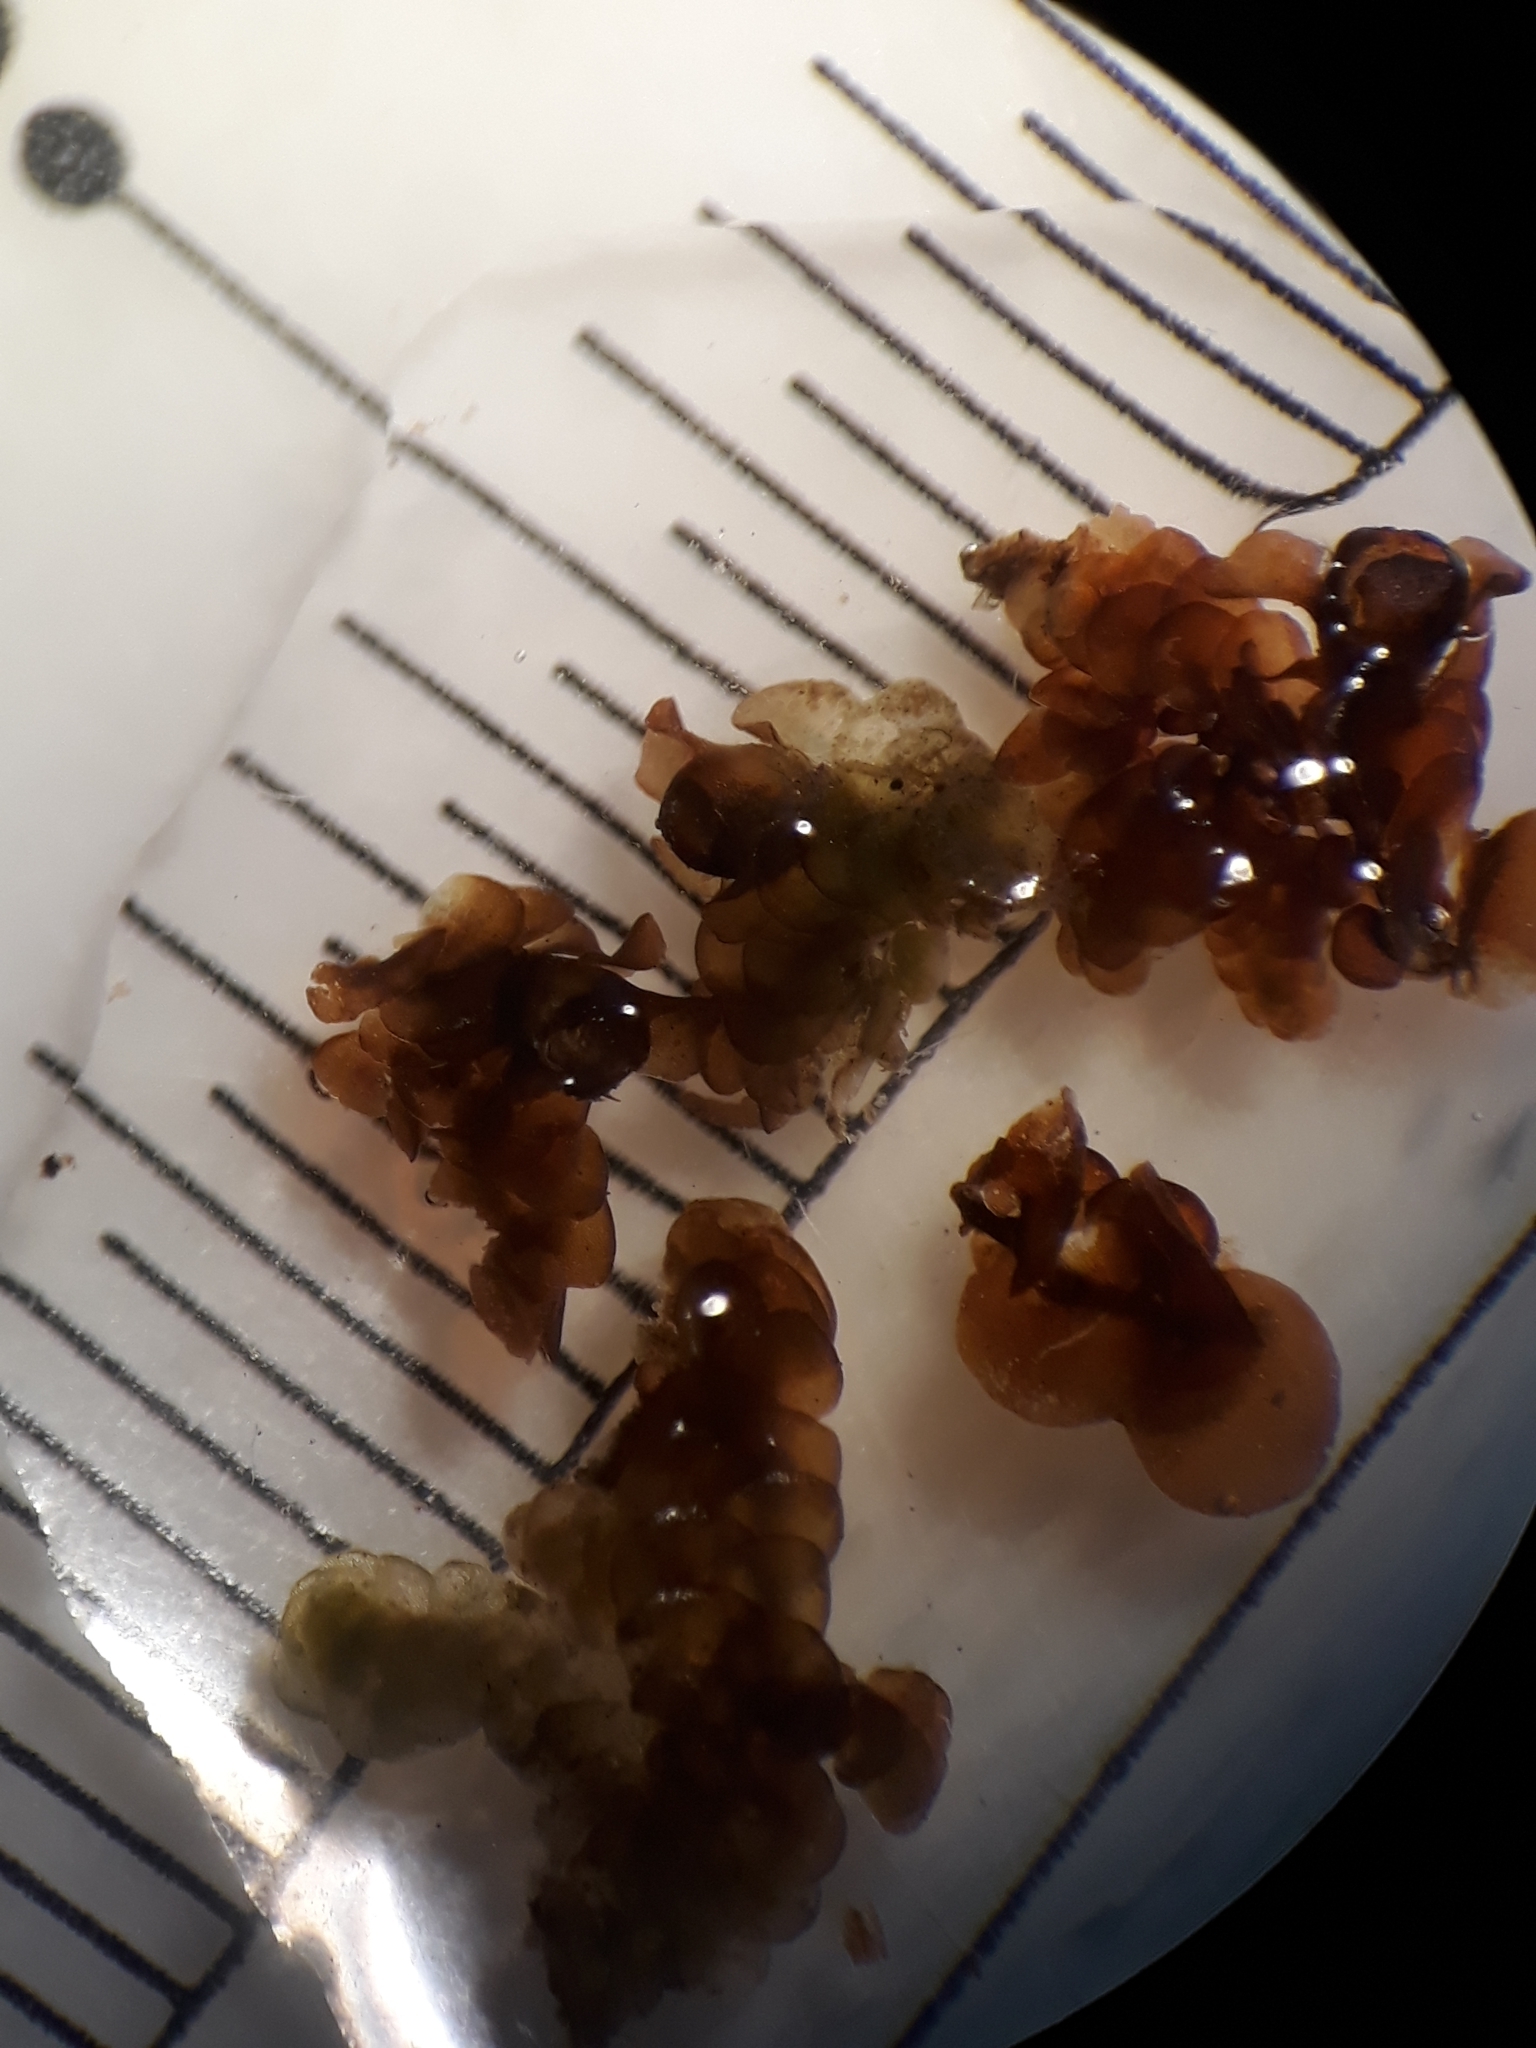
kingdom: Plantae
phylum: Marchantiophyta
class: Jungermanniopsida
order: Porellales
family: Frullaniaceae
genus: Frullania
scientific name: Frullania patula
